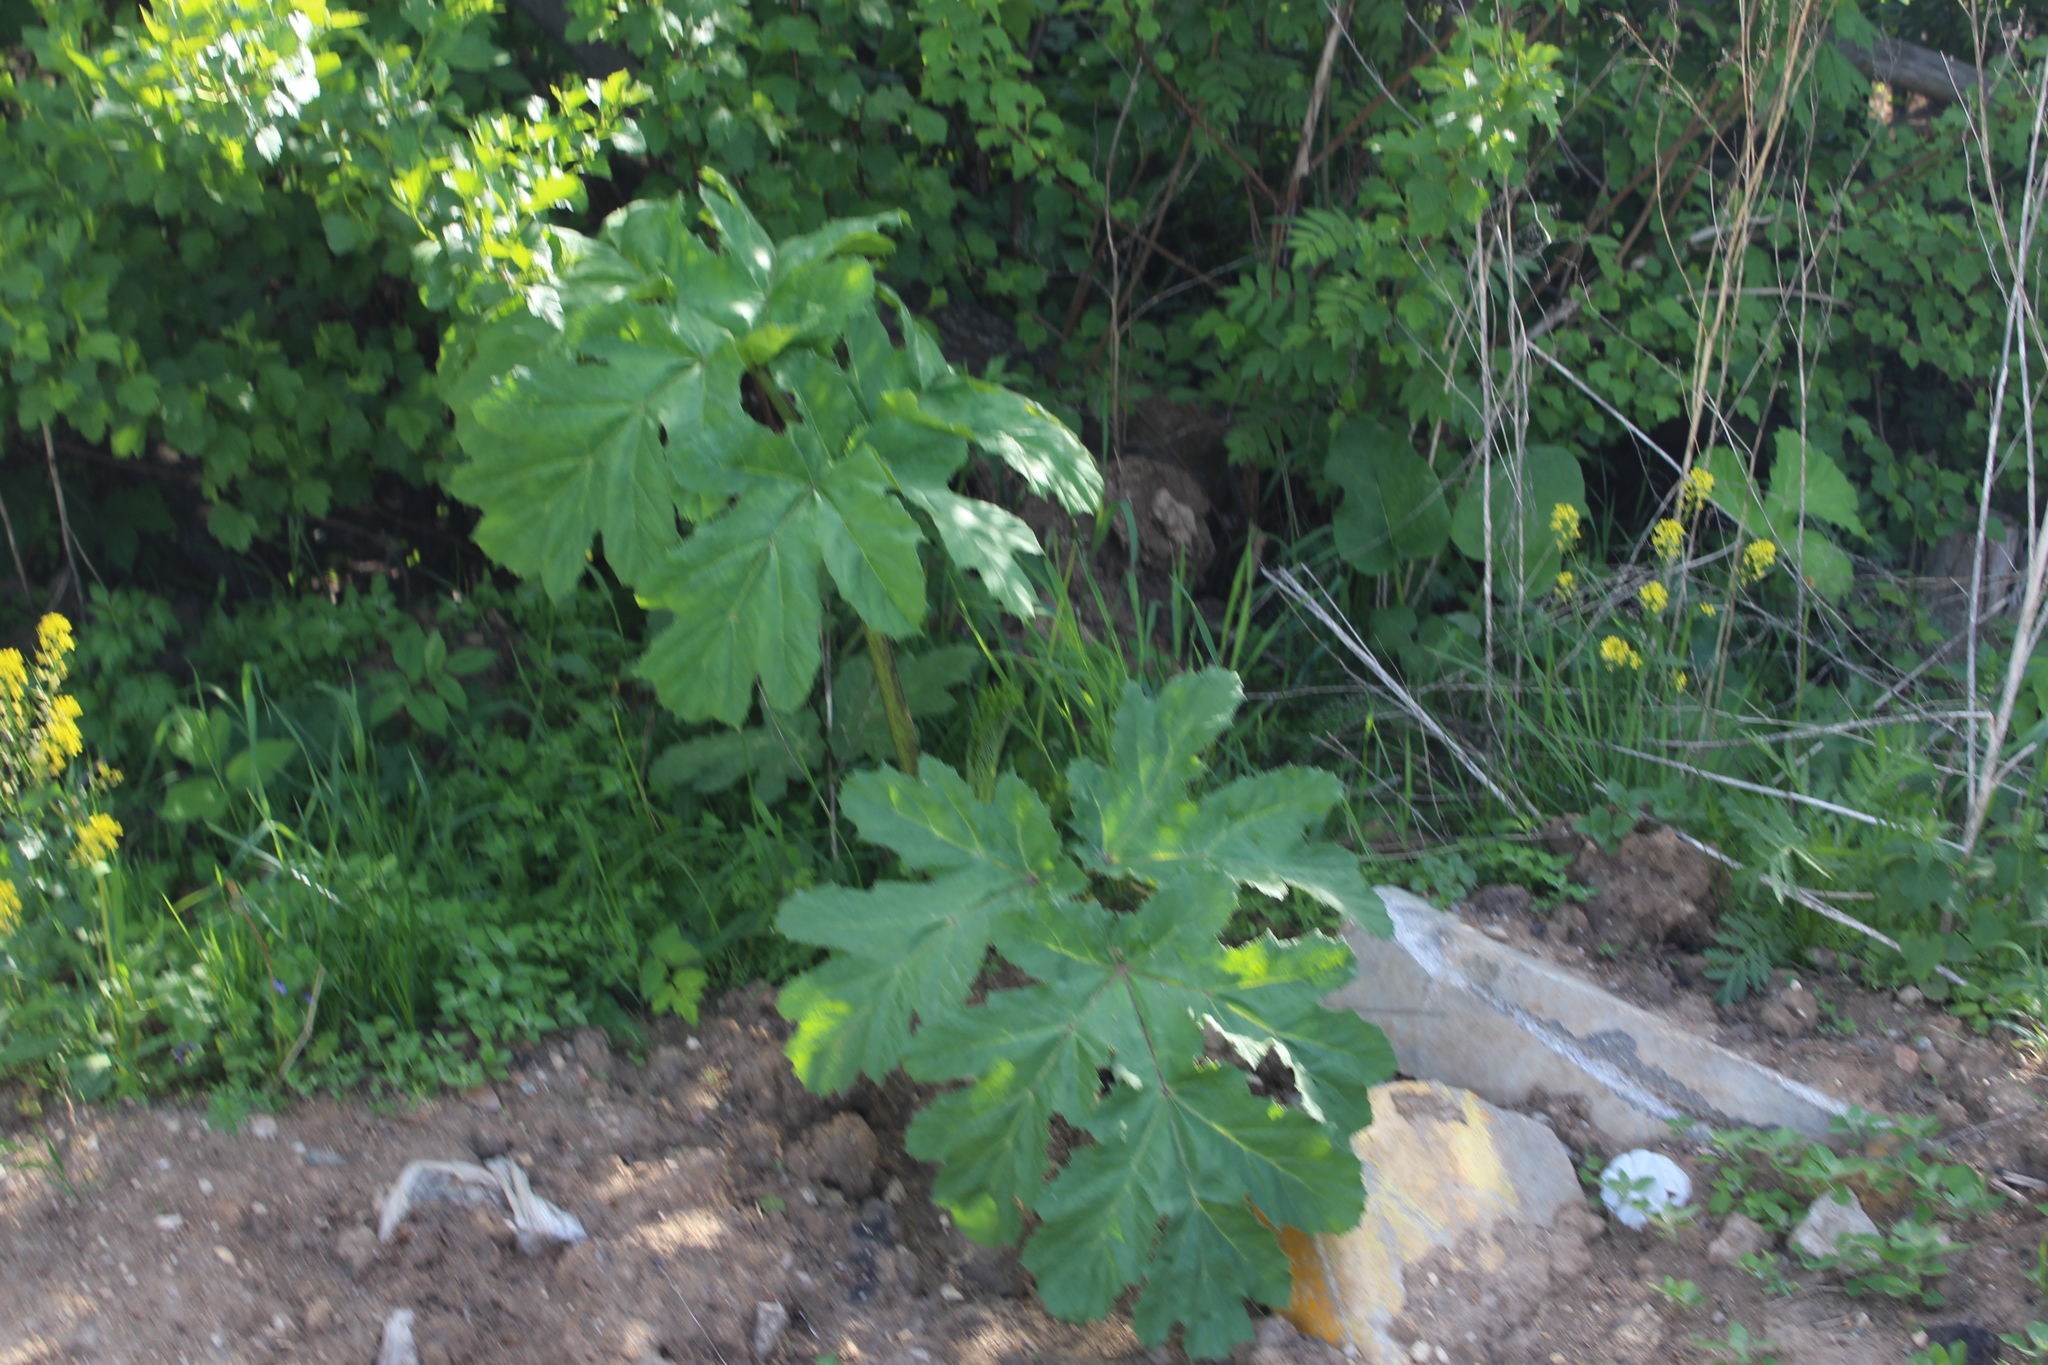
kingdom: Plantae
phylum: Tracheophyta
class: Magnoliopsida
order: Apiales
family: Apiaceae
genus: Heracleum
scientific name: Heracleum sosnowskyi
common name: Sosnowsky's hogweed
